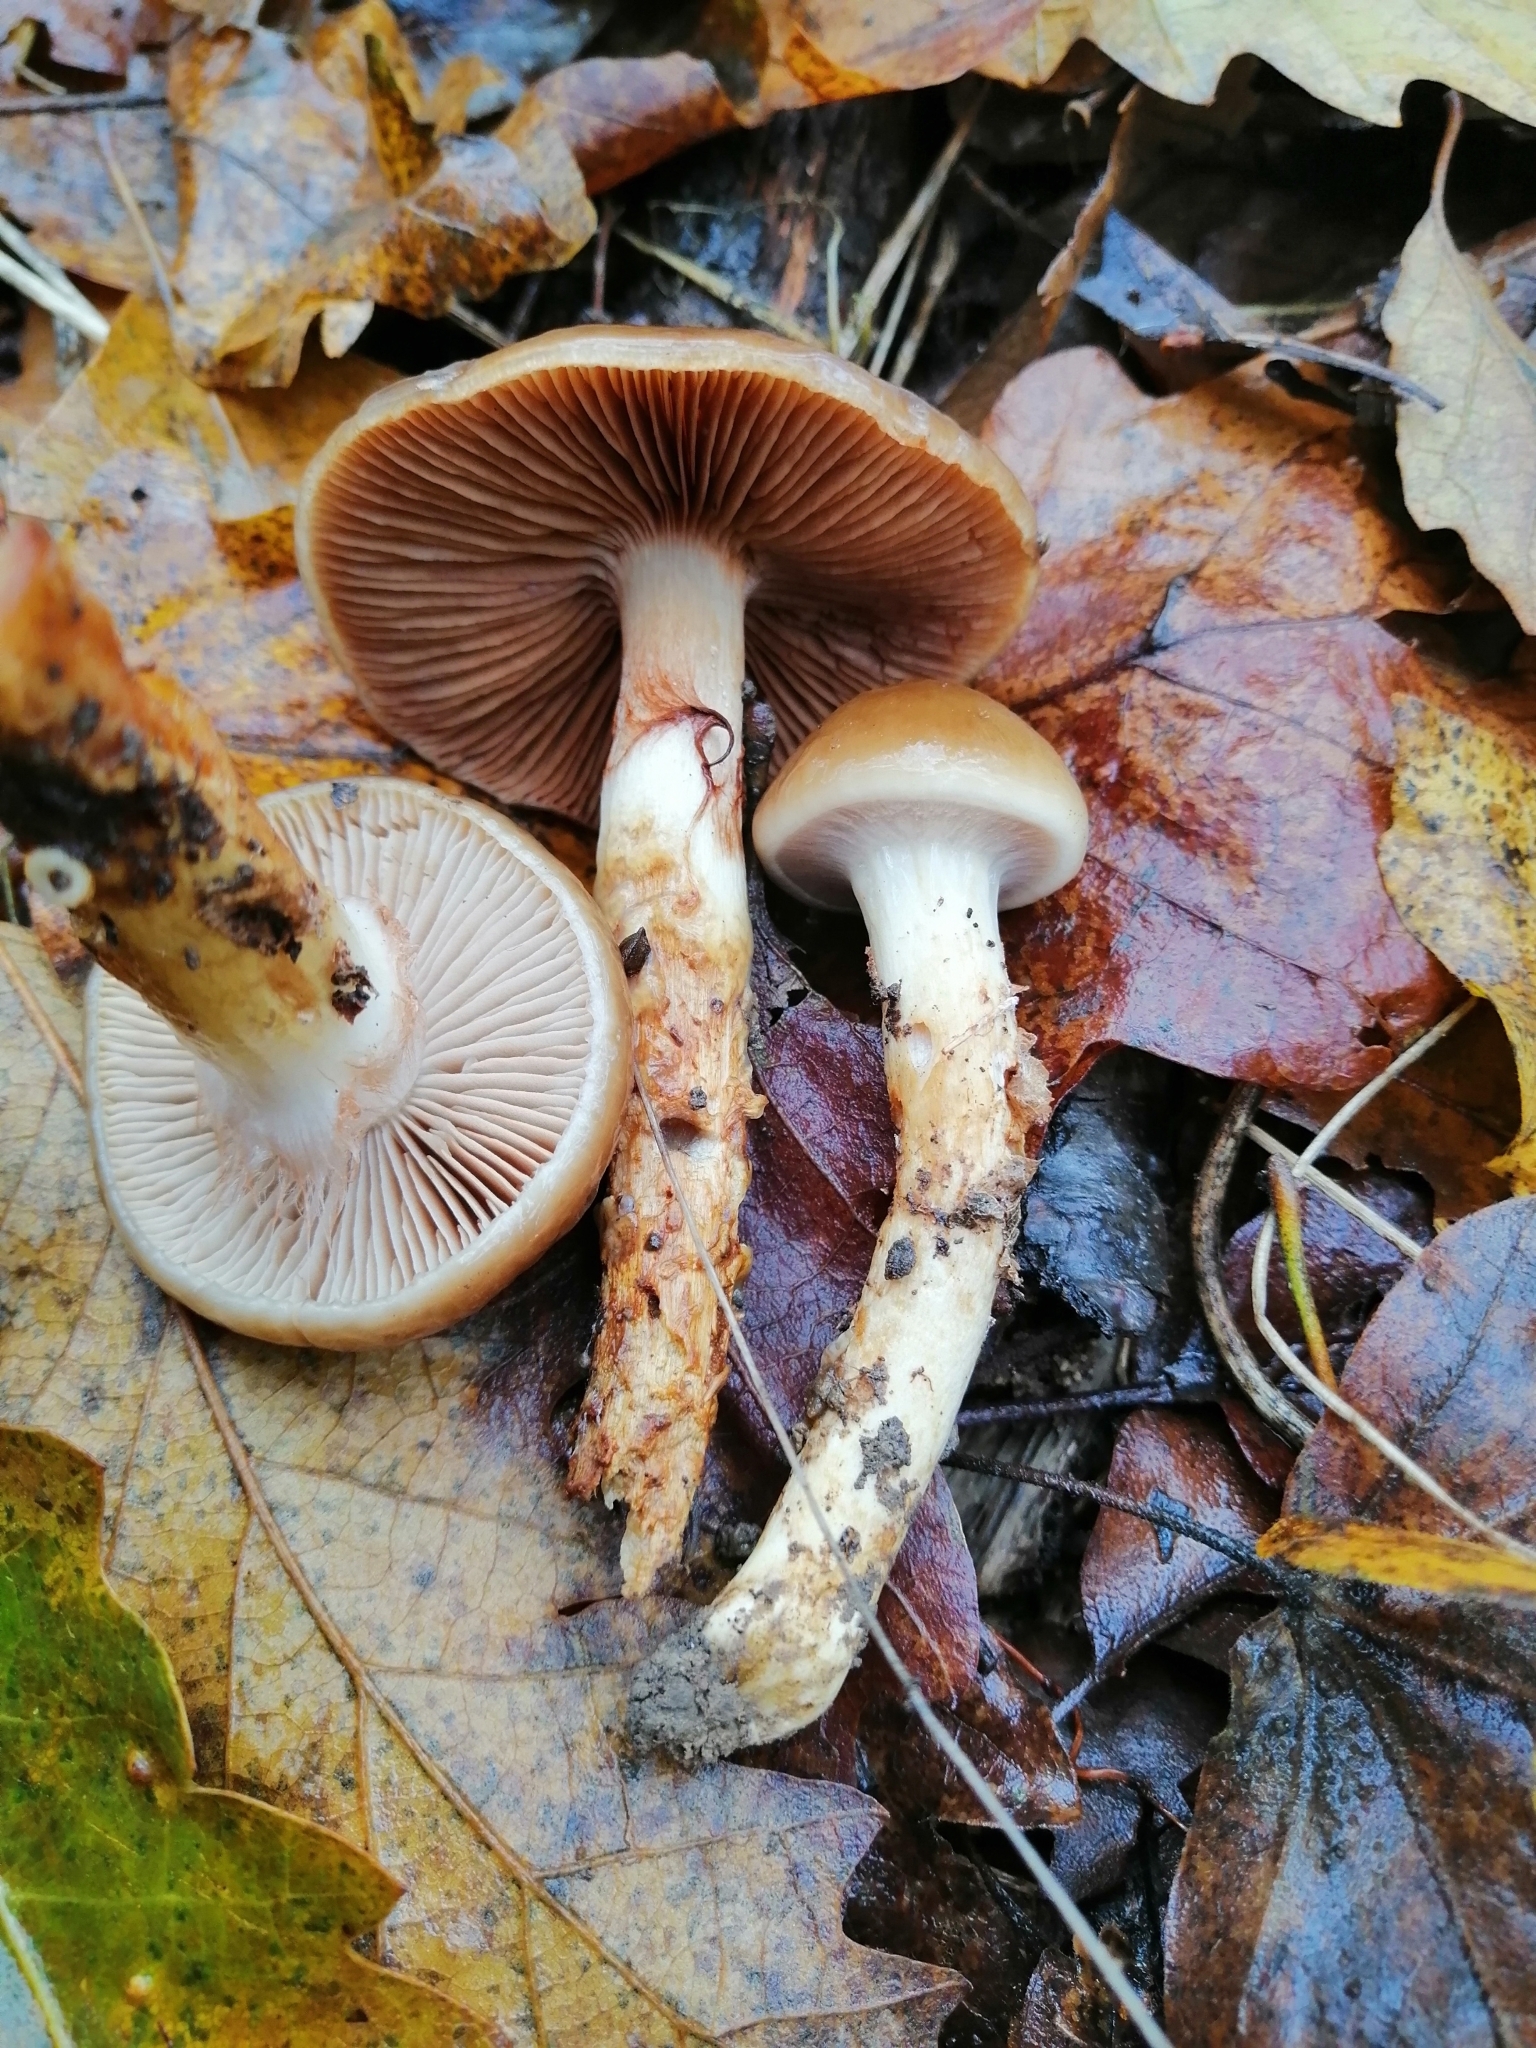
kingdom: Fungi
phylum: Basidiomycota
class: Agaricomycetes
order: Agaricales
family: Cortinariaceae
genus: Cortinarius
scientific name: Cortinarius trivialis
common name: Girdled webcap
